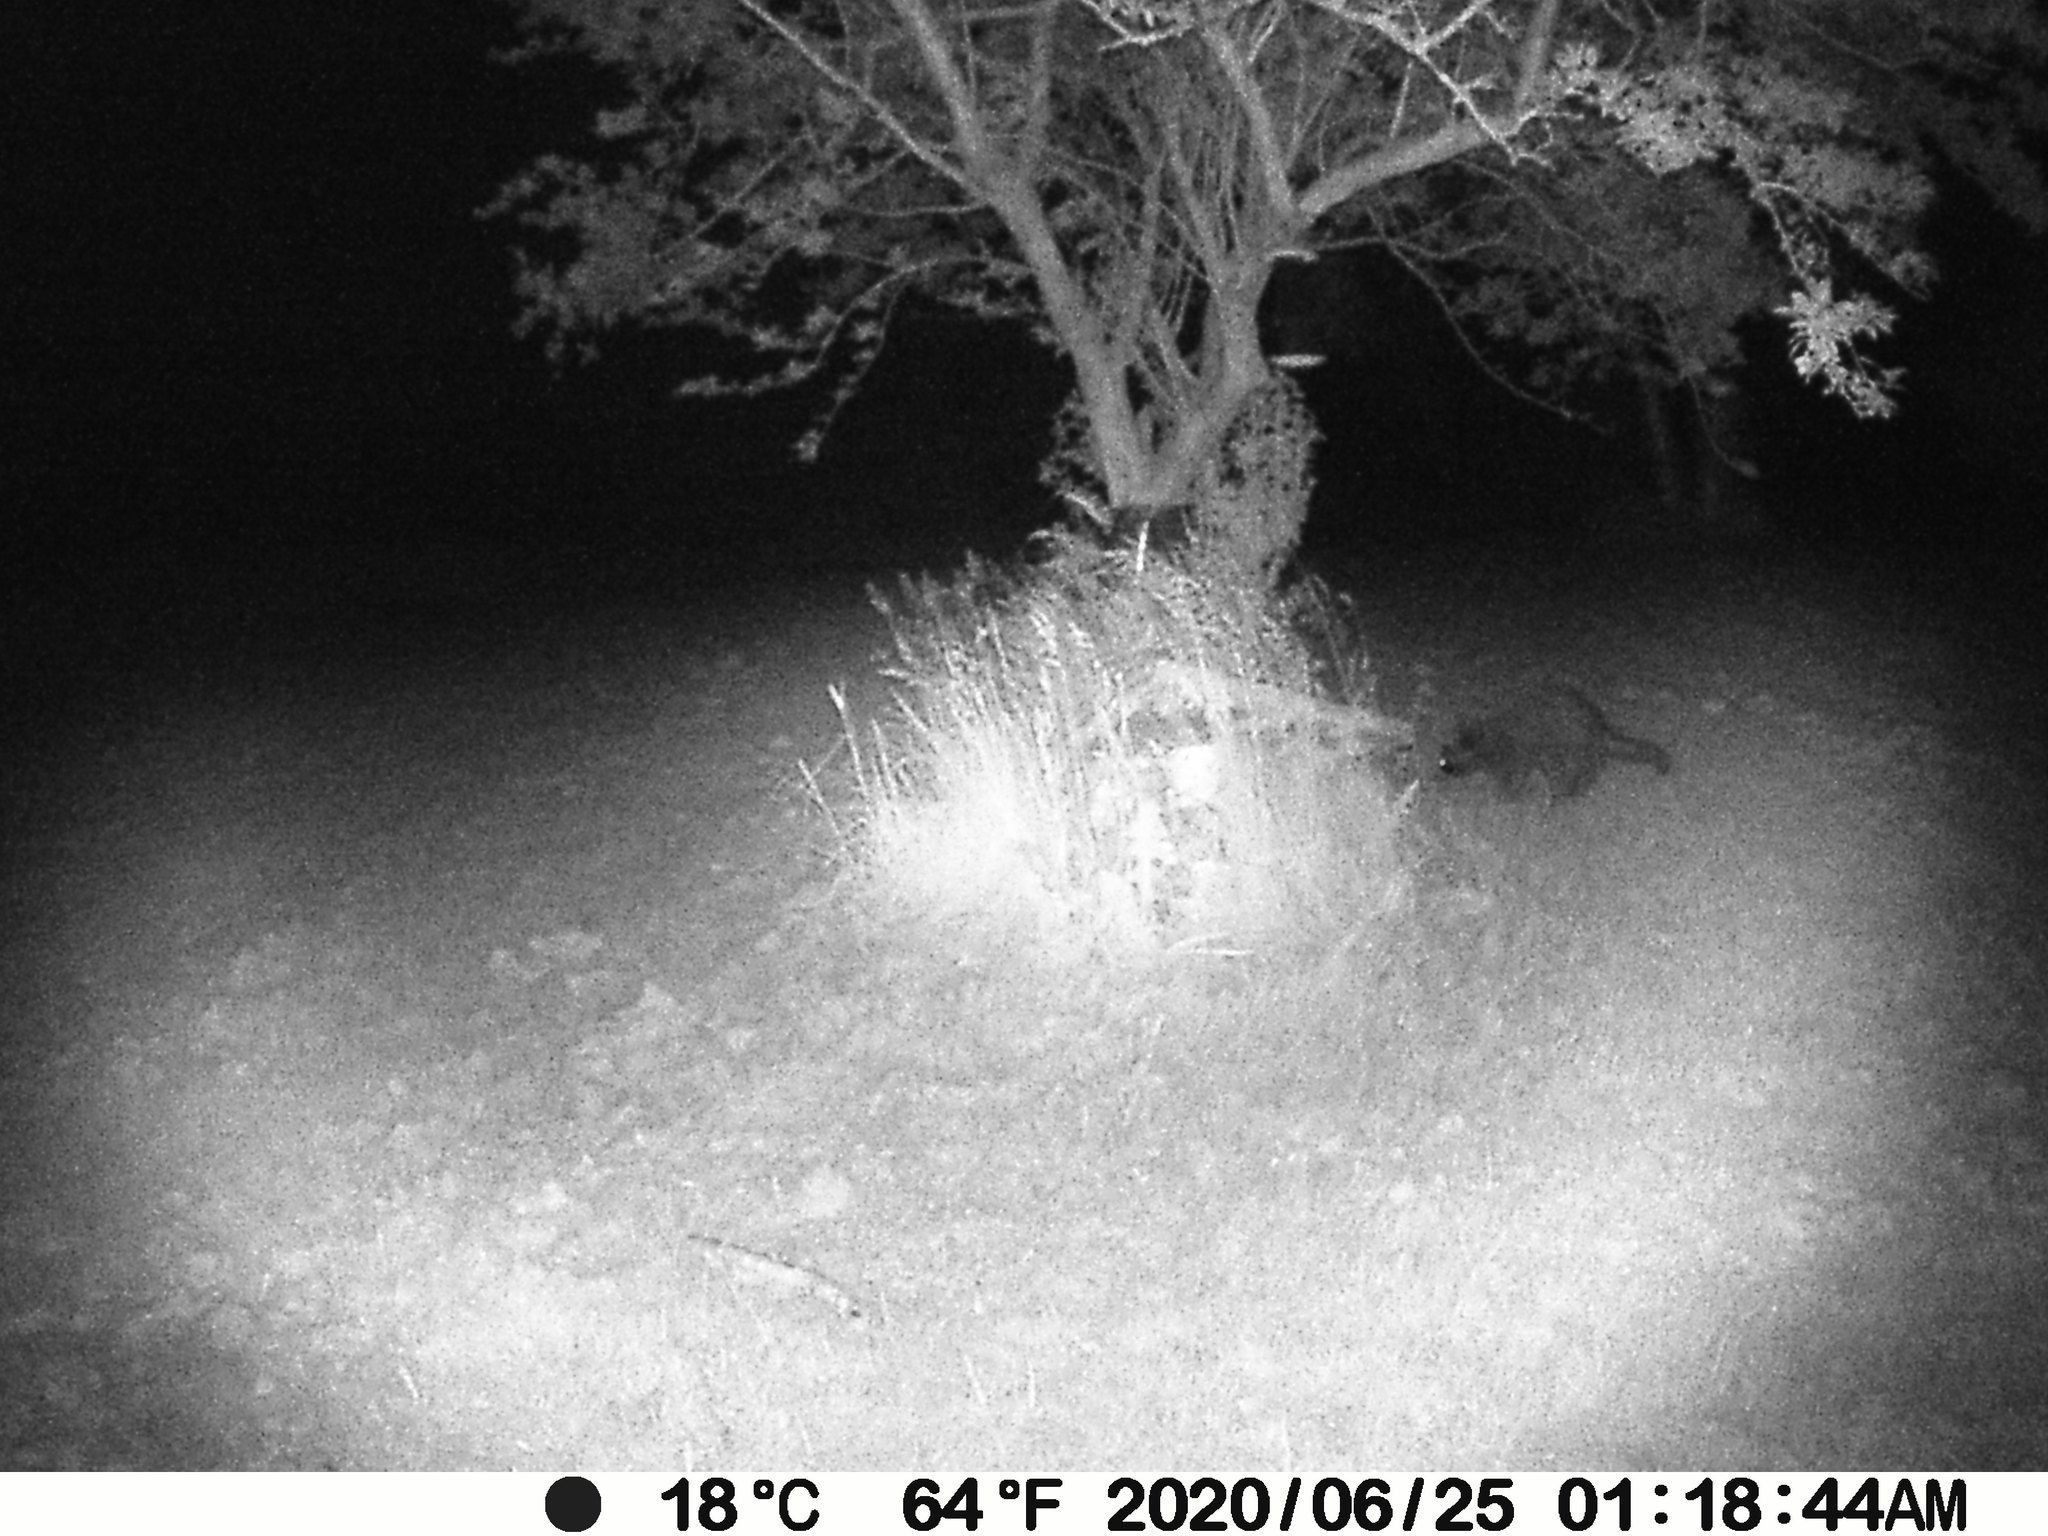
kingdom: Animalia
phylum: Chordata
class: Mammalia
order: Carnivora
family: Procyonidae
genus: Procyon
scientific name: Procyon lotor
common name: Raccoon
